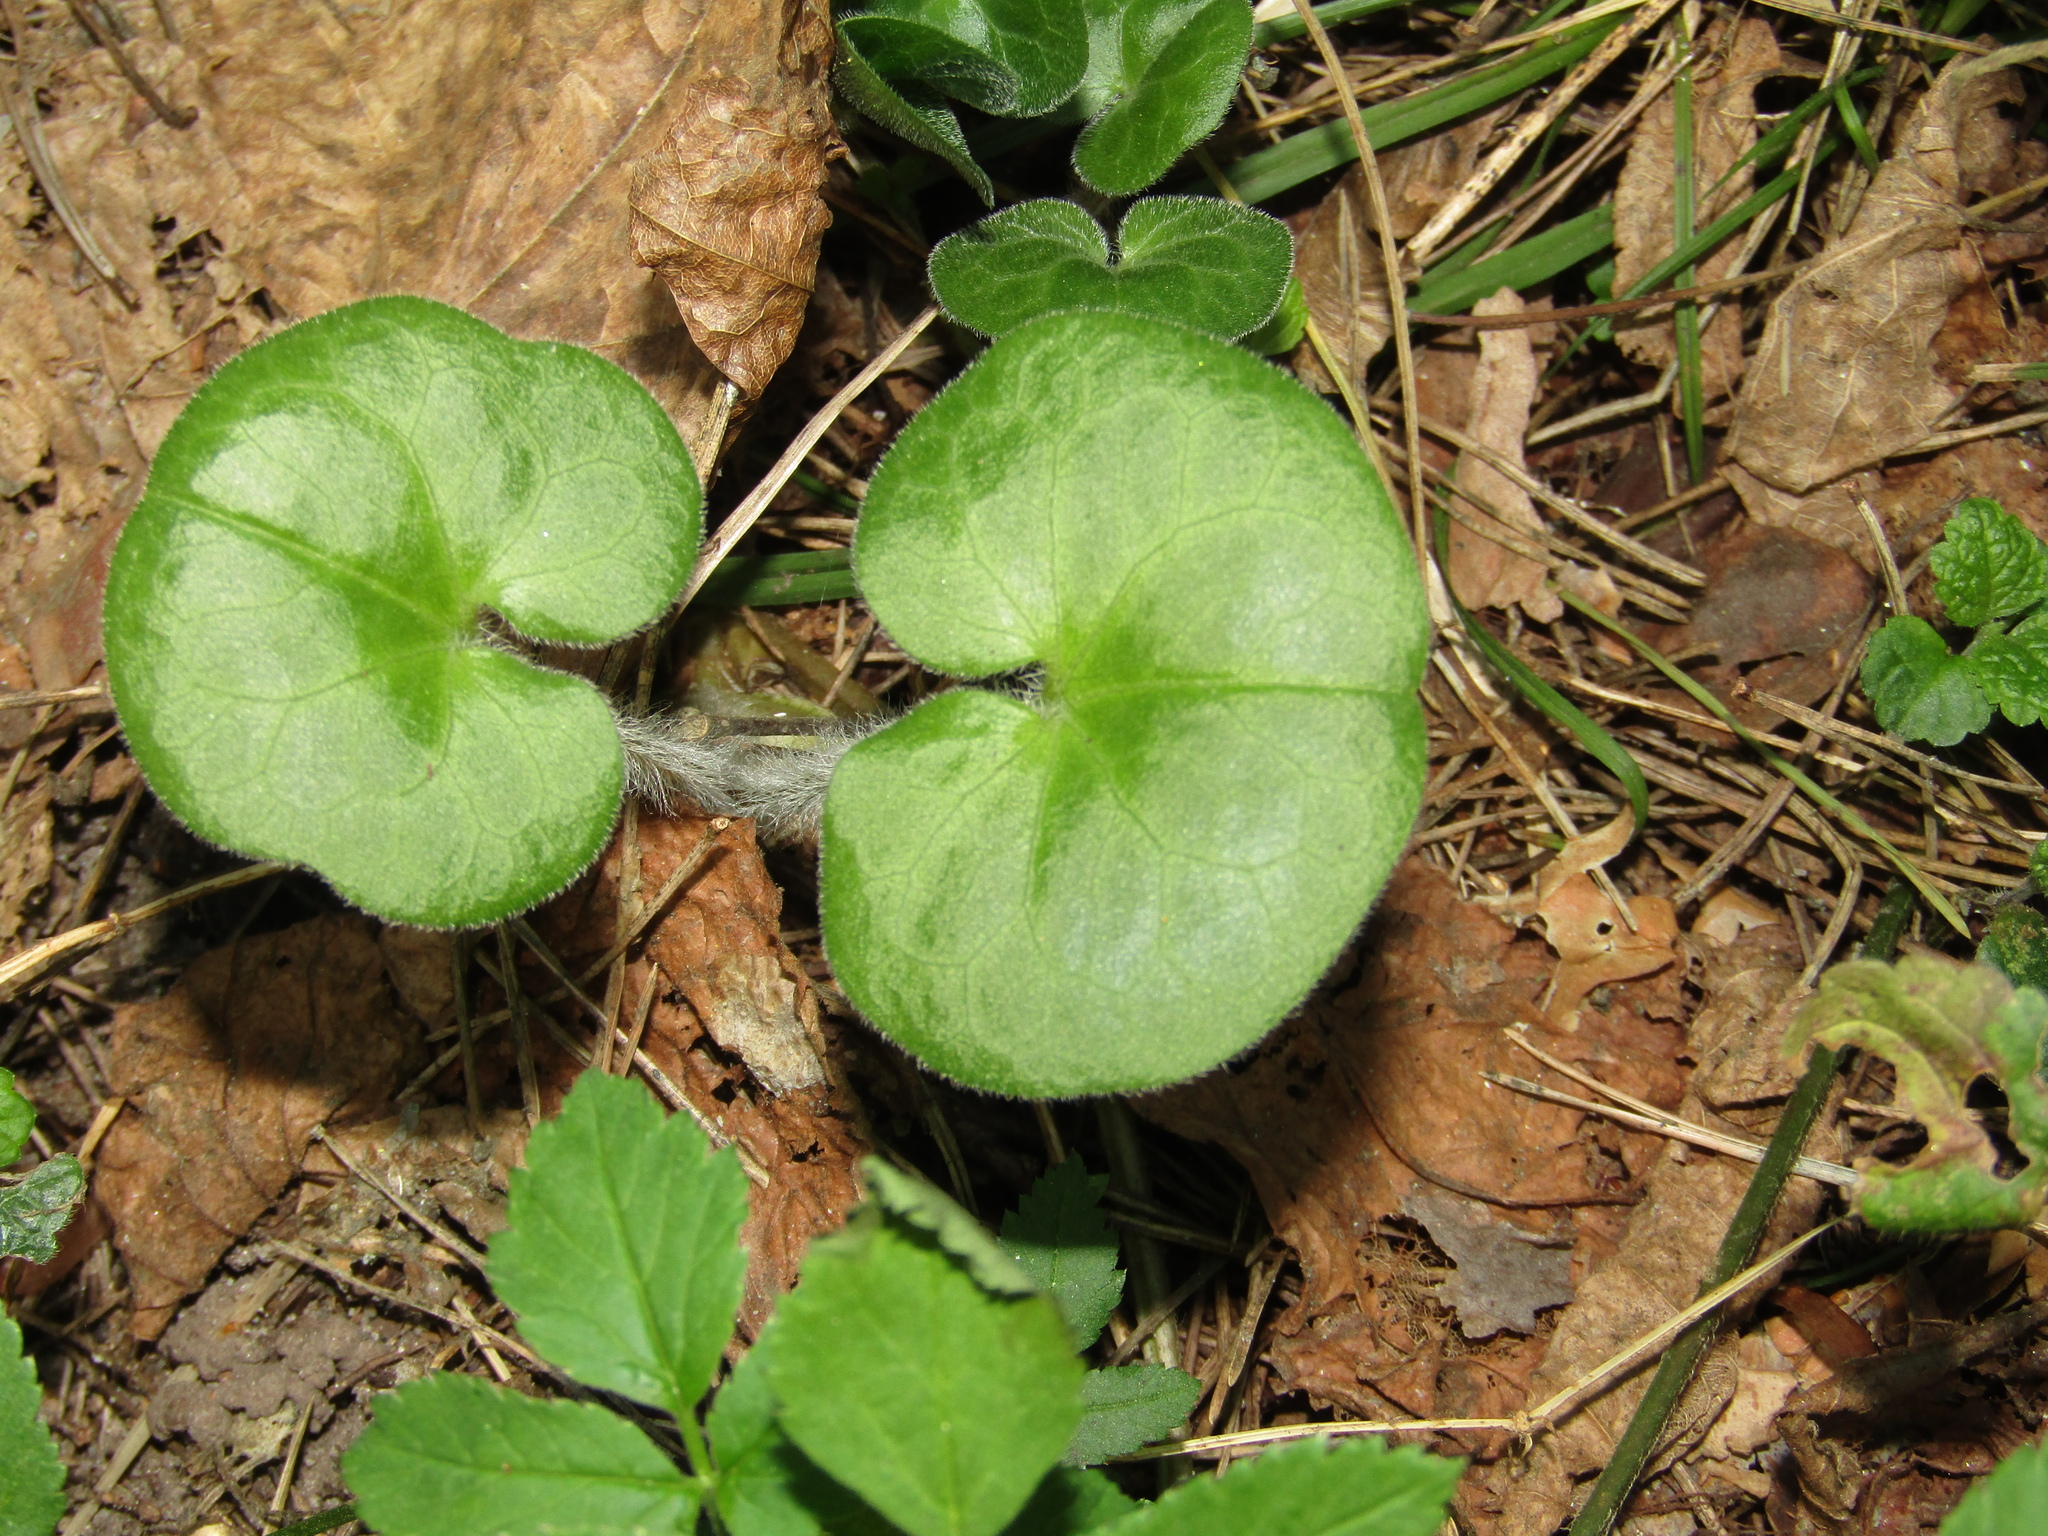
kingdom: Plantae
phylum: Tracheophyta
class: Magnoliopsida
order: Piperales
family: Aristolochiaceae
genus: Asarum
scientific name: Asarum europaeum
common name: Asarabacca
